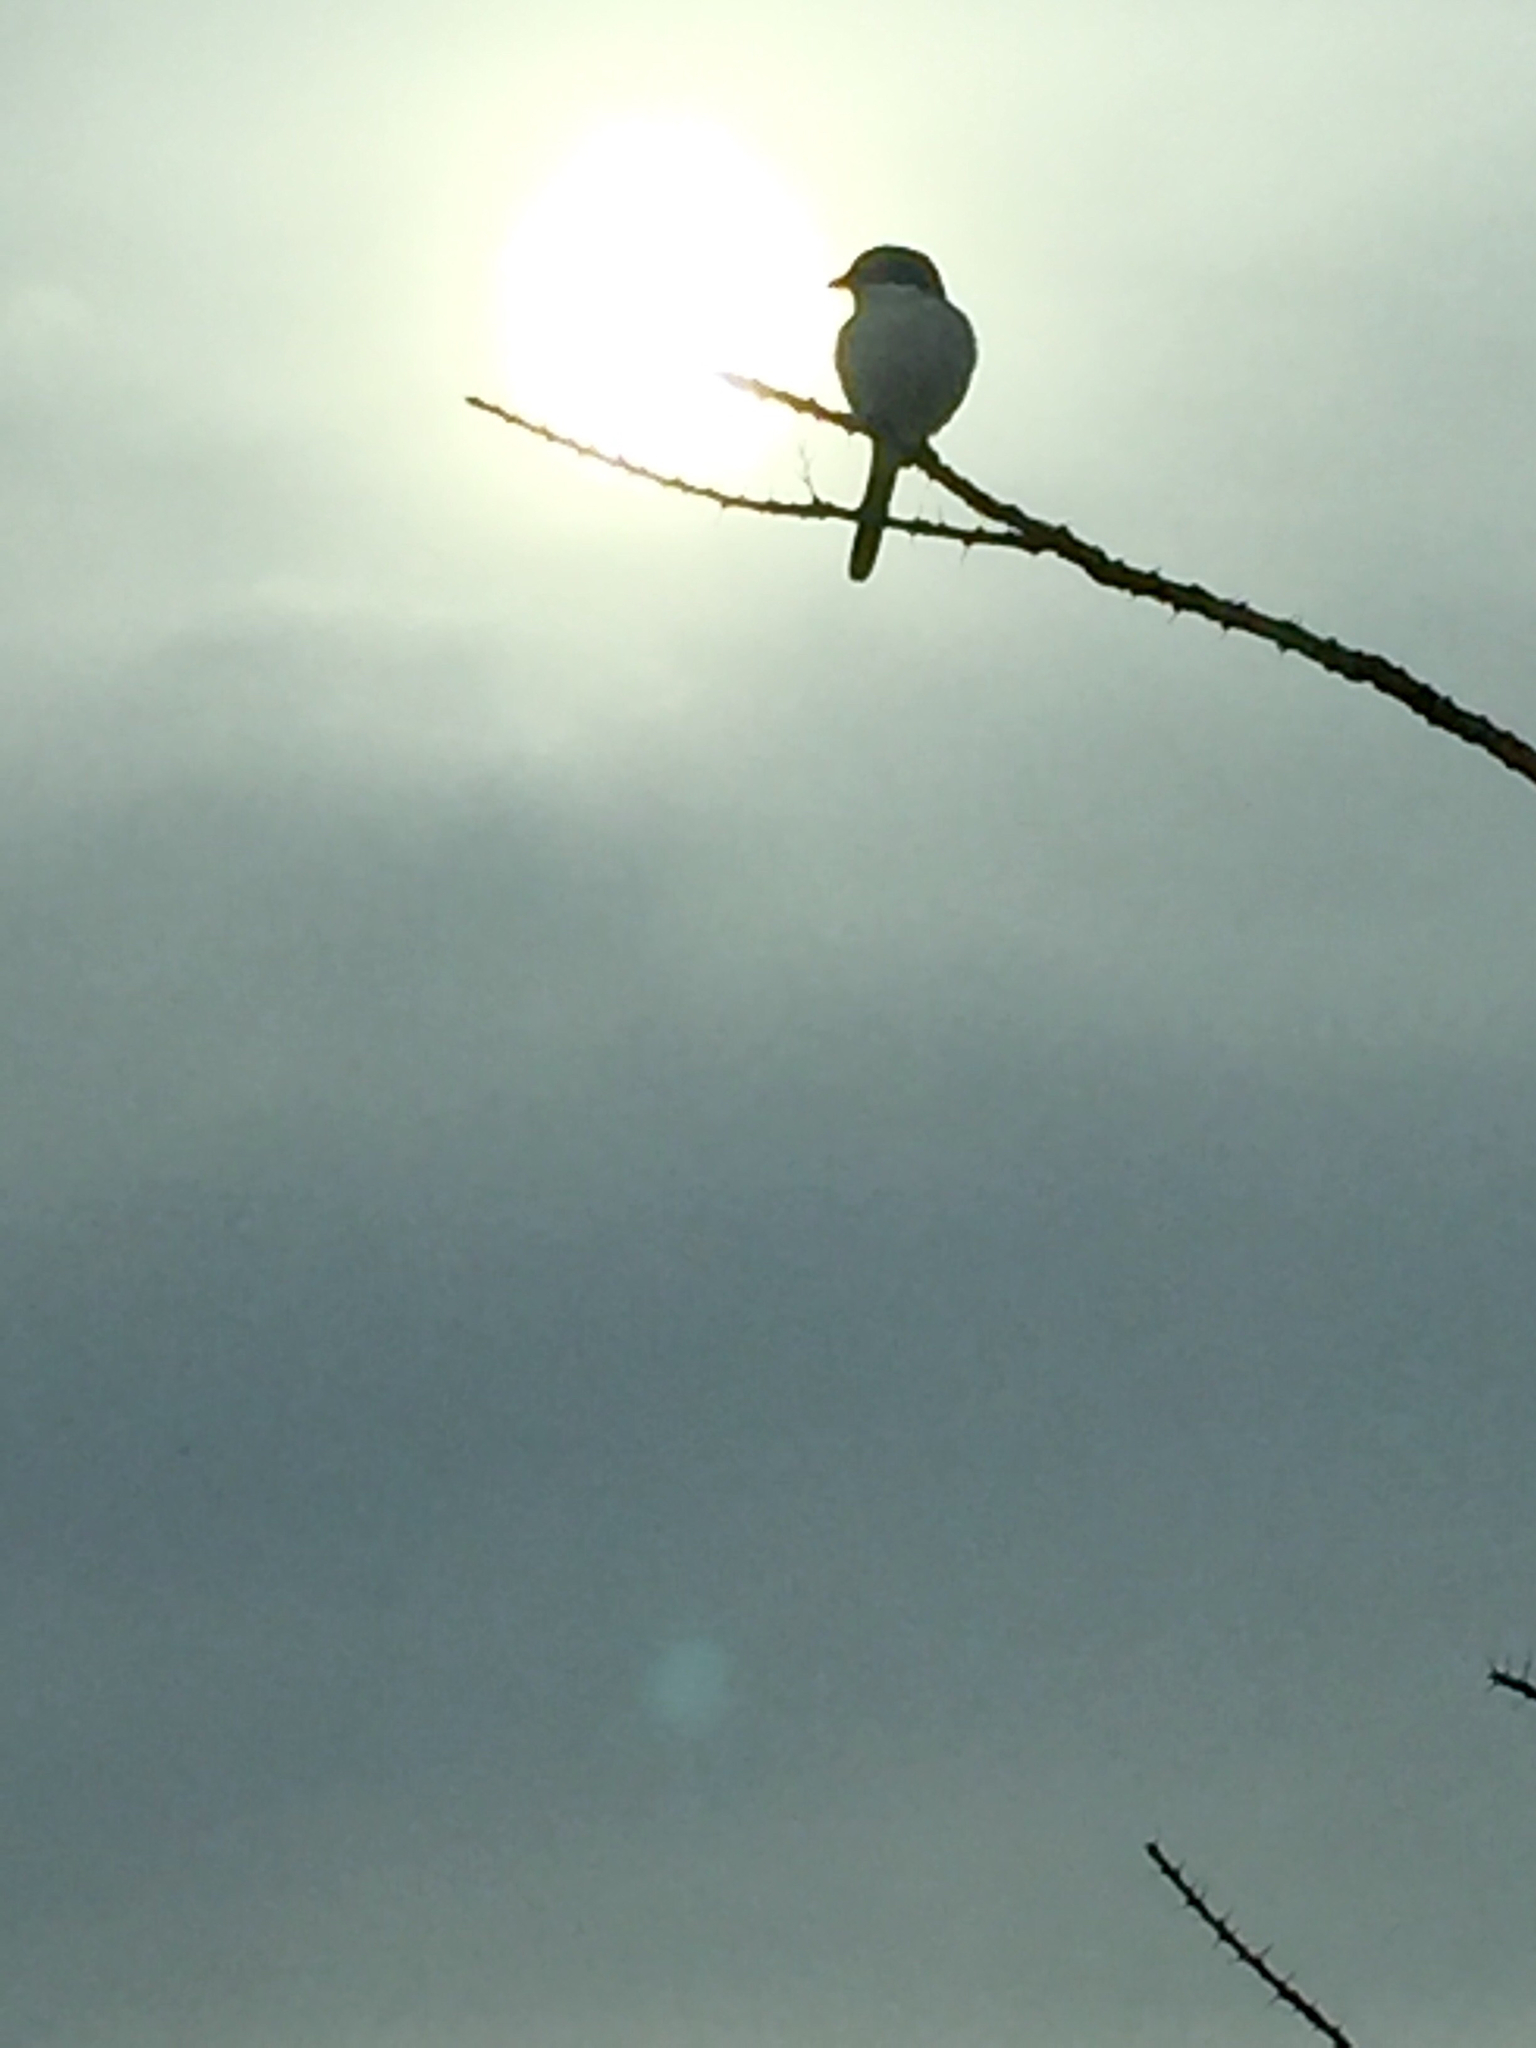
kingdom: Animalia
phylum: Chordata
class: Aves
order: Passeriformes
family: Laniidae
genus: Lanius
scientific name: Lanius ludovicianus
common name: Loggerhead shrike
